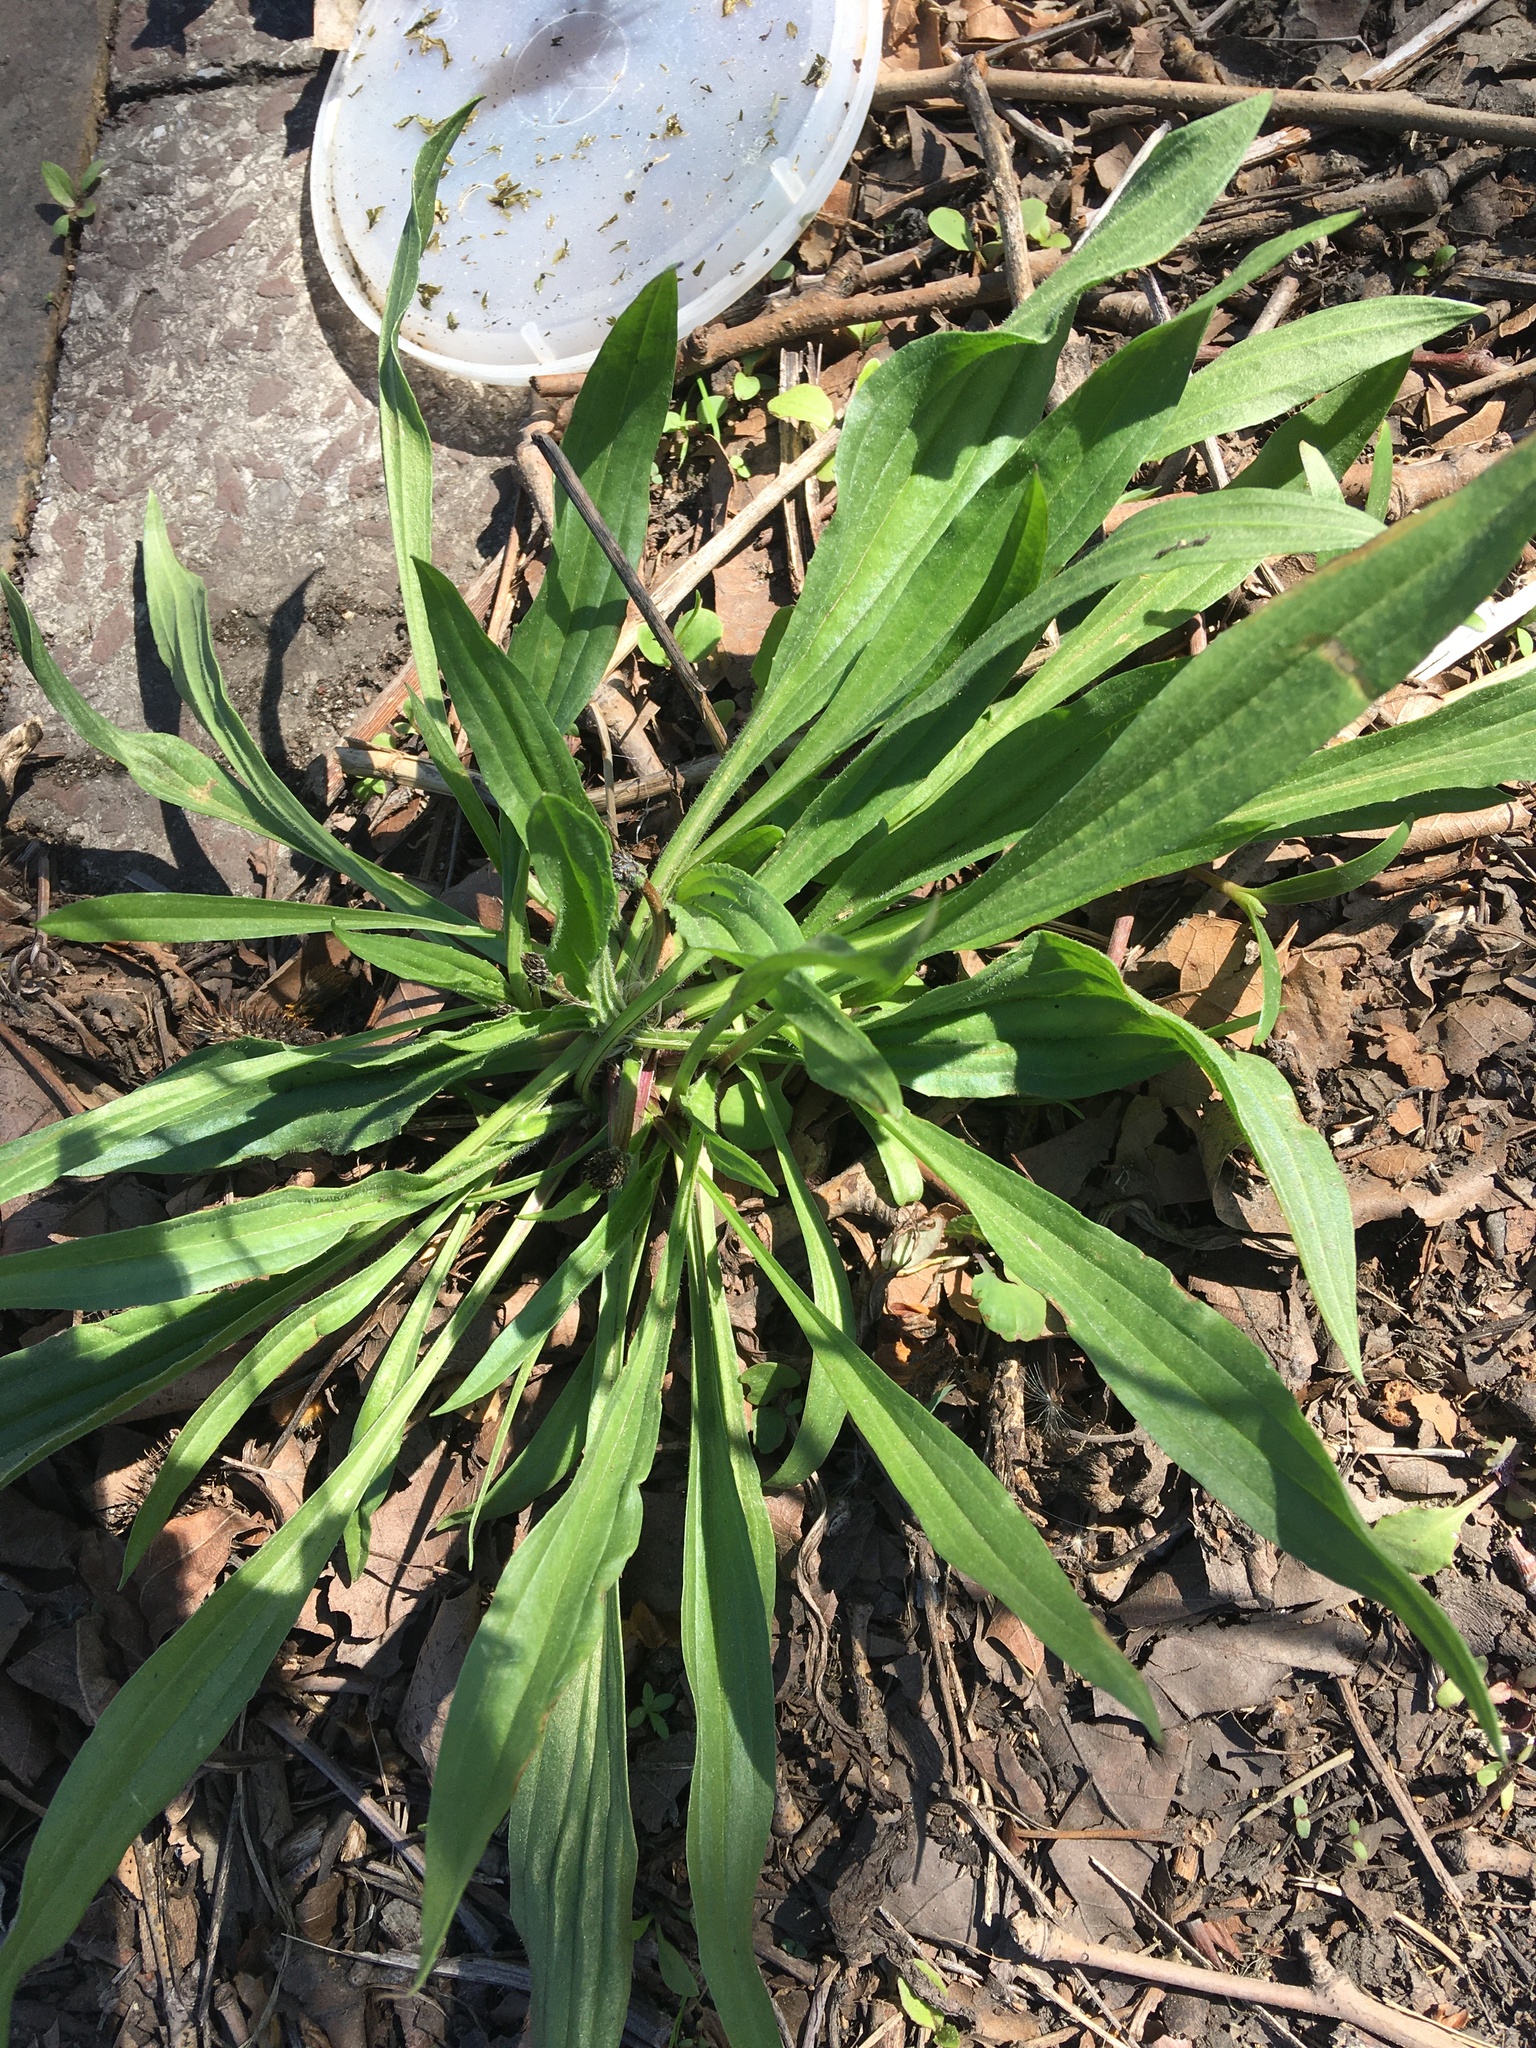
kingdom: Plantae
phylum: Tracheophyta
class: Magnoliopsida
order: Lamiales
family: Plantaginaceae
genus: Plantago
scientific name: Plantago lanceolata
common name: Ribwort plantain
